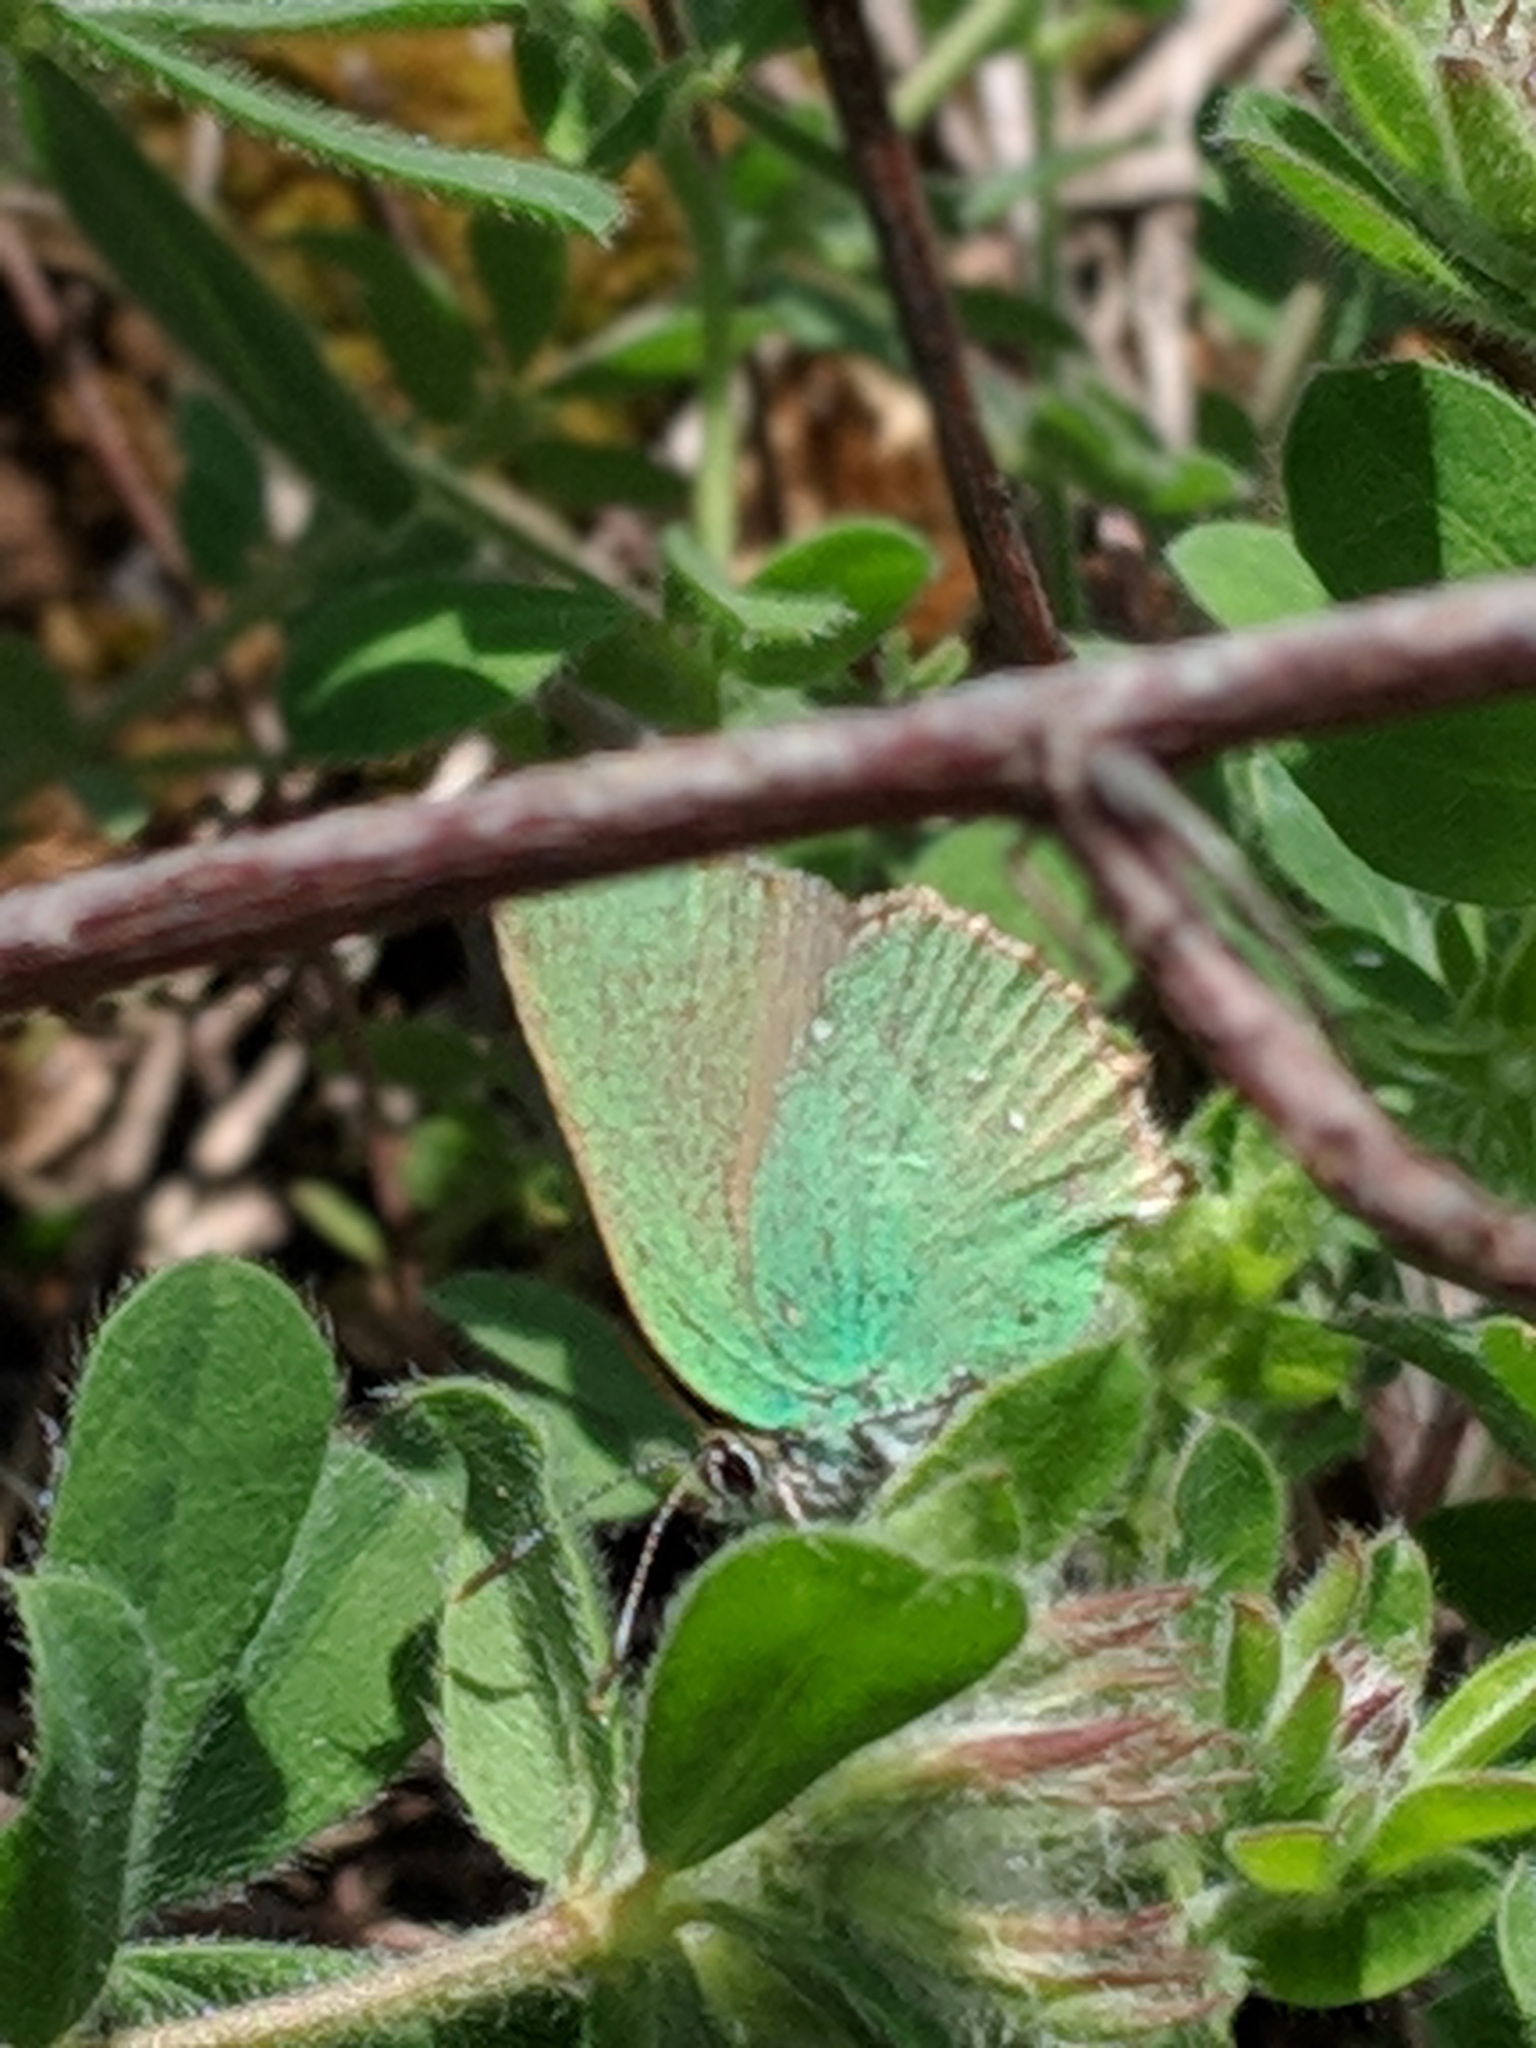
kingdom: Animalia
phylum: Arthropoda
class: Insecta
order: Lepidoptera
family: Lycaenidae
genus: Callophrys
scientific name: Callophrys rubi
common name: Green hairstreak
